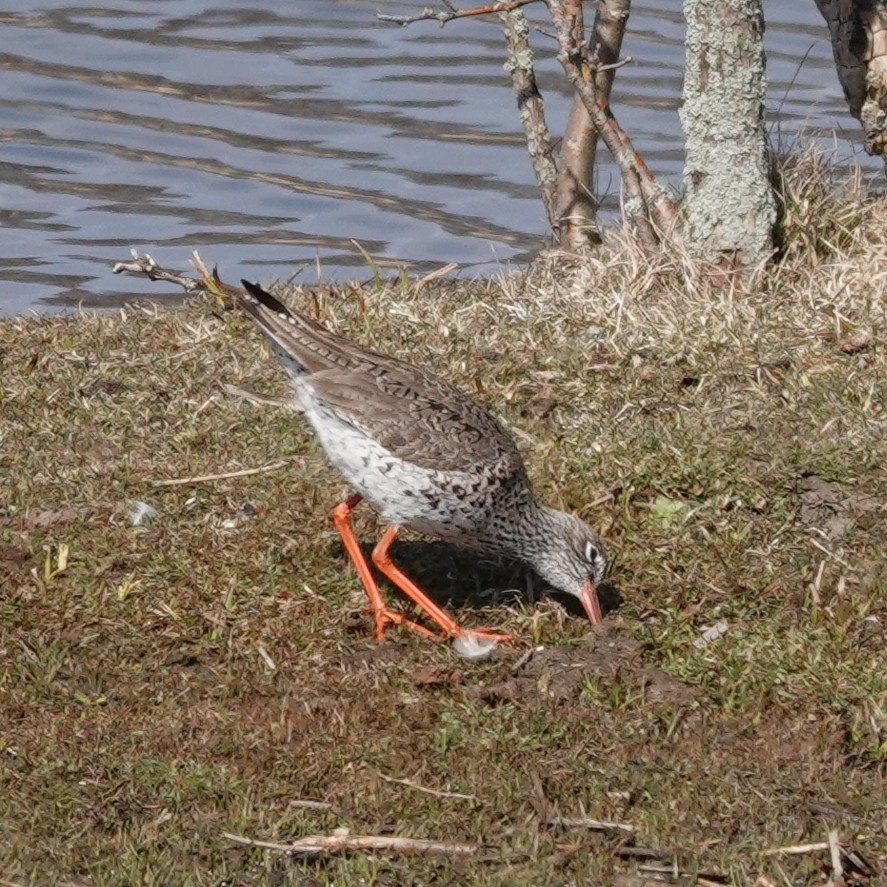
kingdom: Animalia
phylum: Chordata
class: Aves
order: Charadriiformes
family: Scolopacidae
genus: Tringa
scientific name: Tringa totanus
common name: Common redshank
